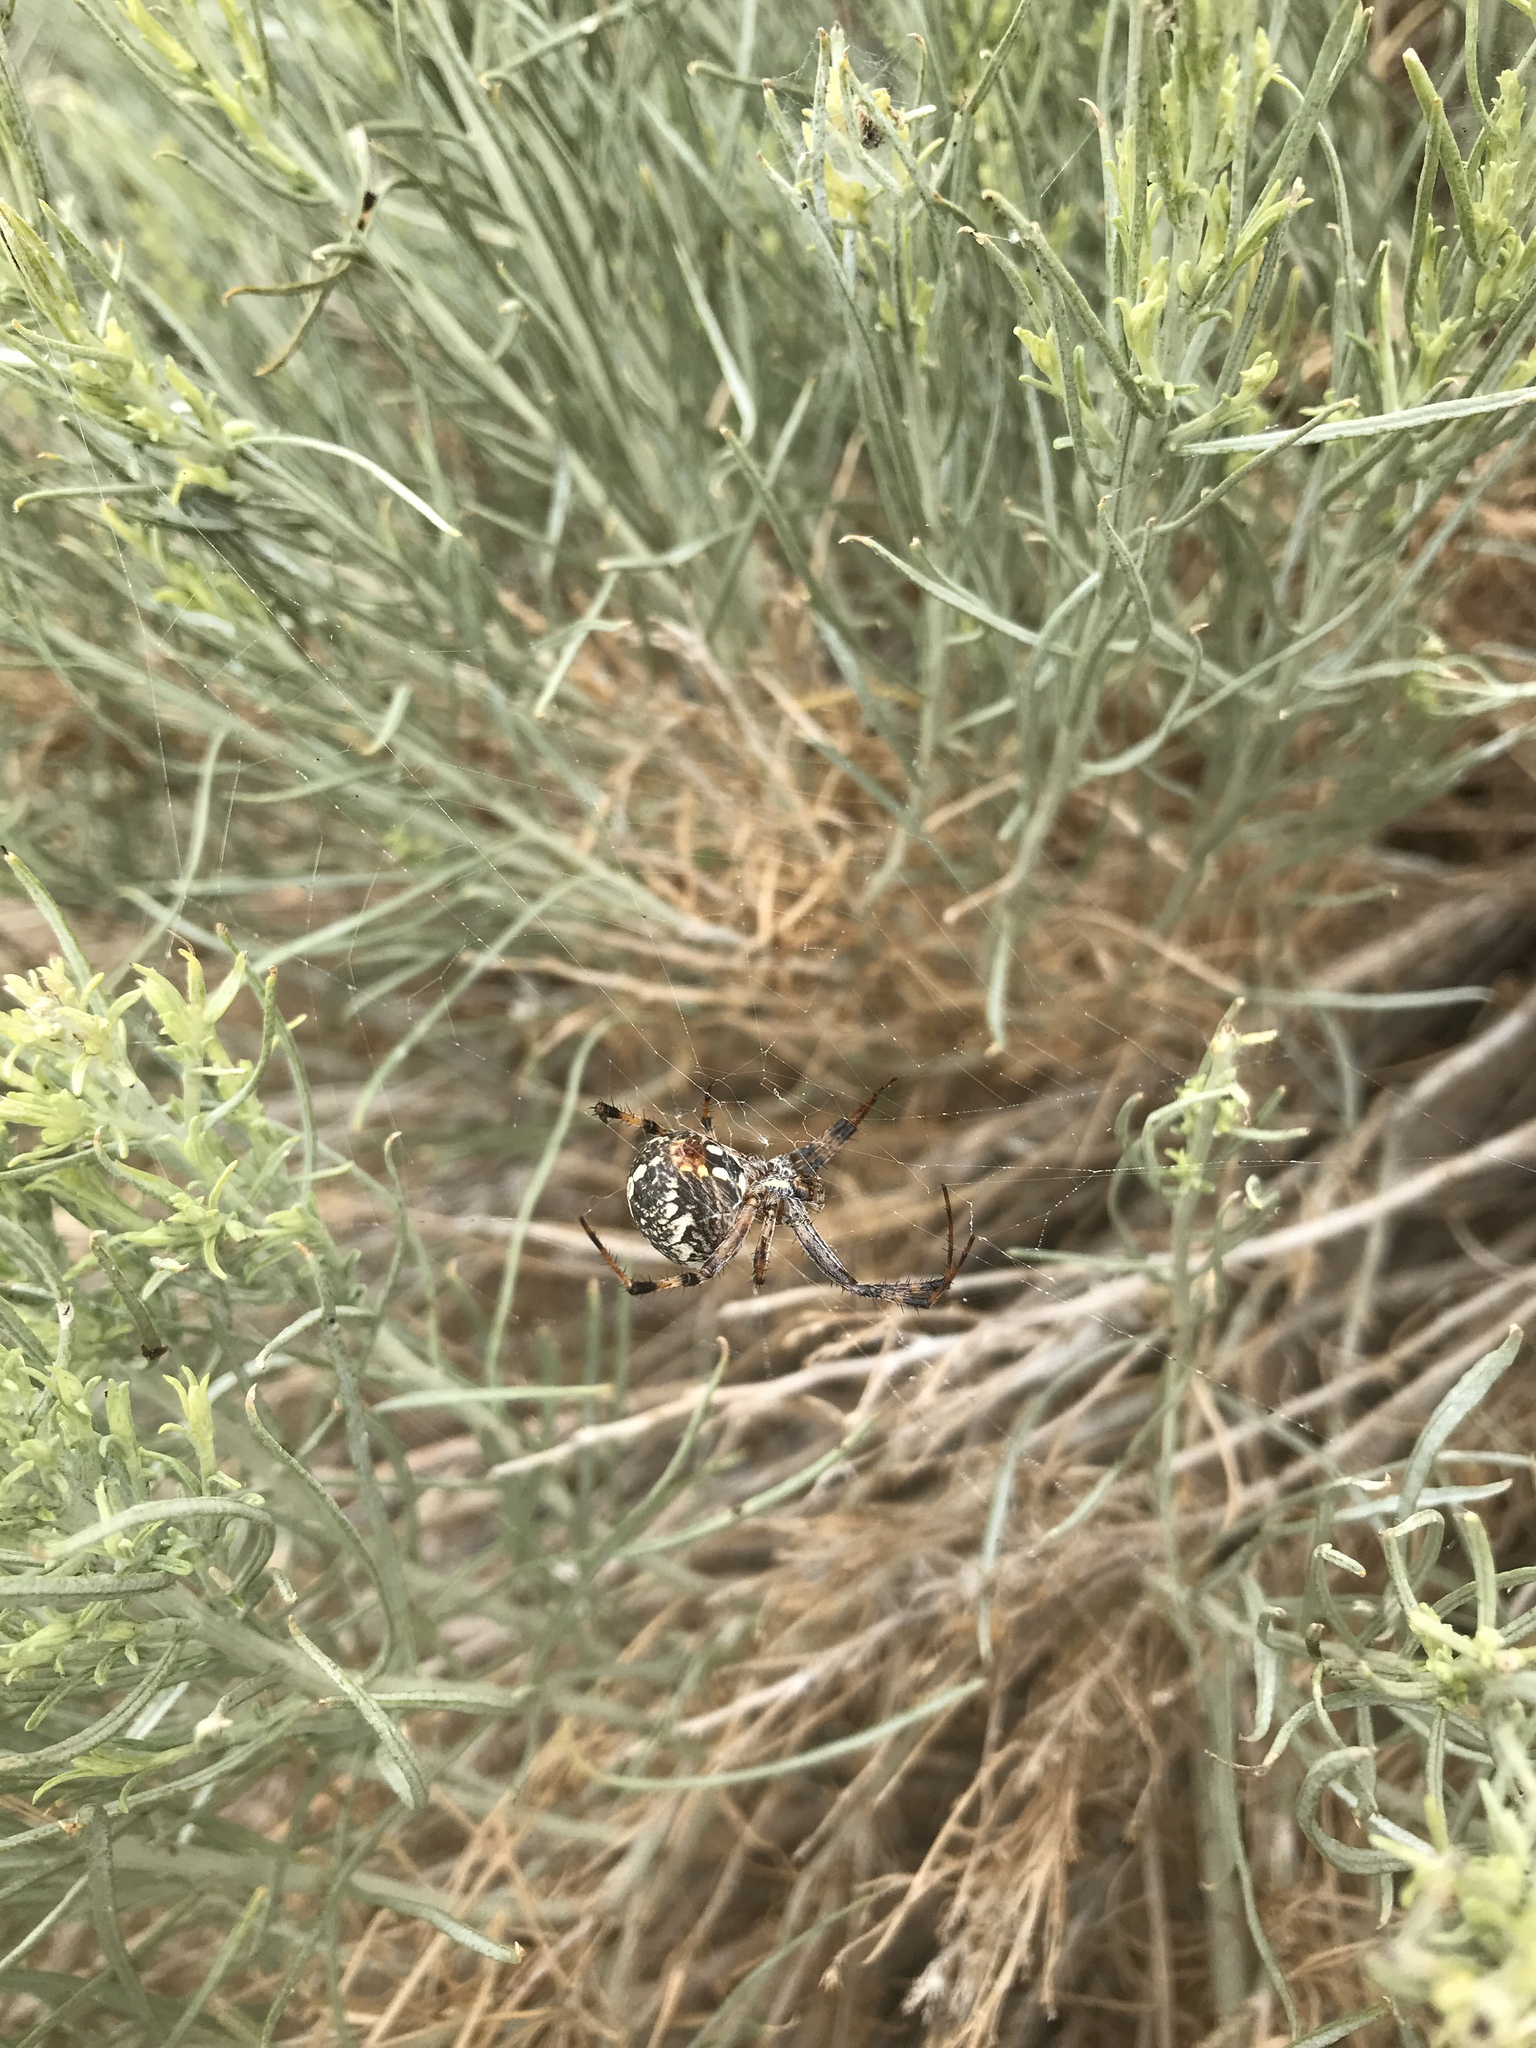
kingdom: Animalia
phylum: Arthropoda
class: Arachnida
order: Araneae
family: Araneidae
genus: Neoscona
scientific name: Neoscona oaxacensis
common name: Orb weavers
